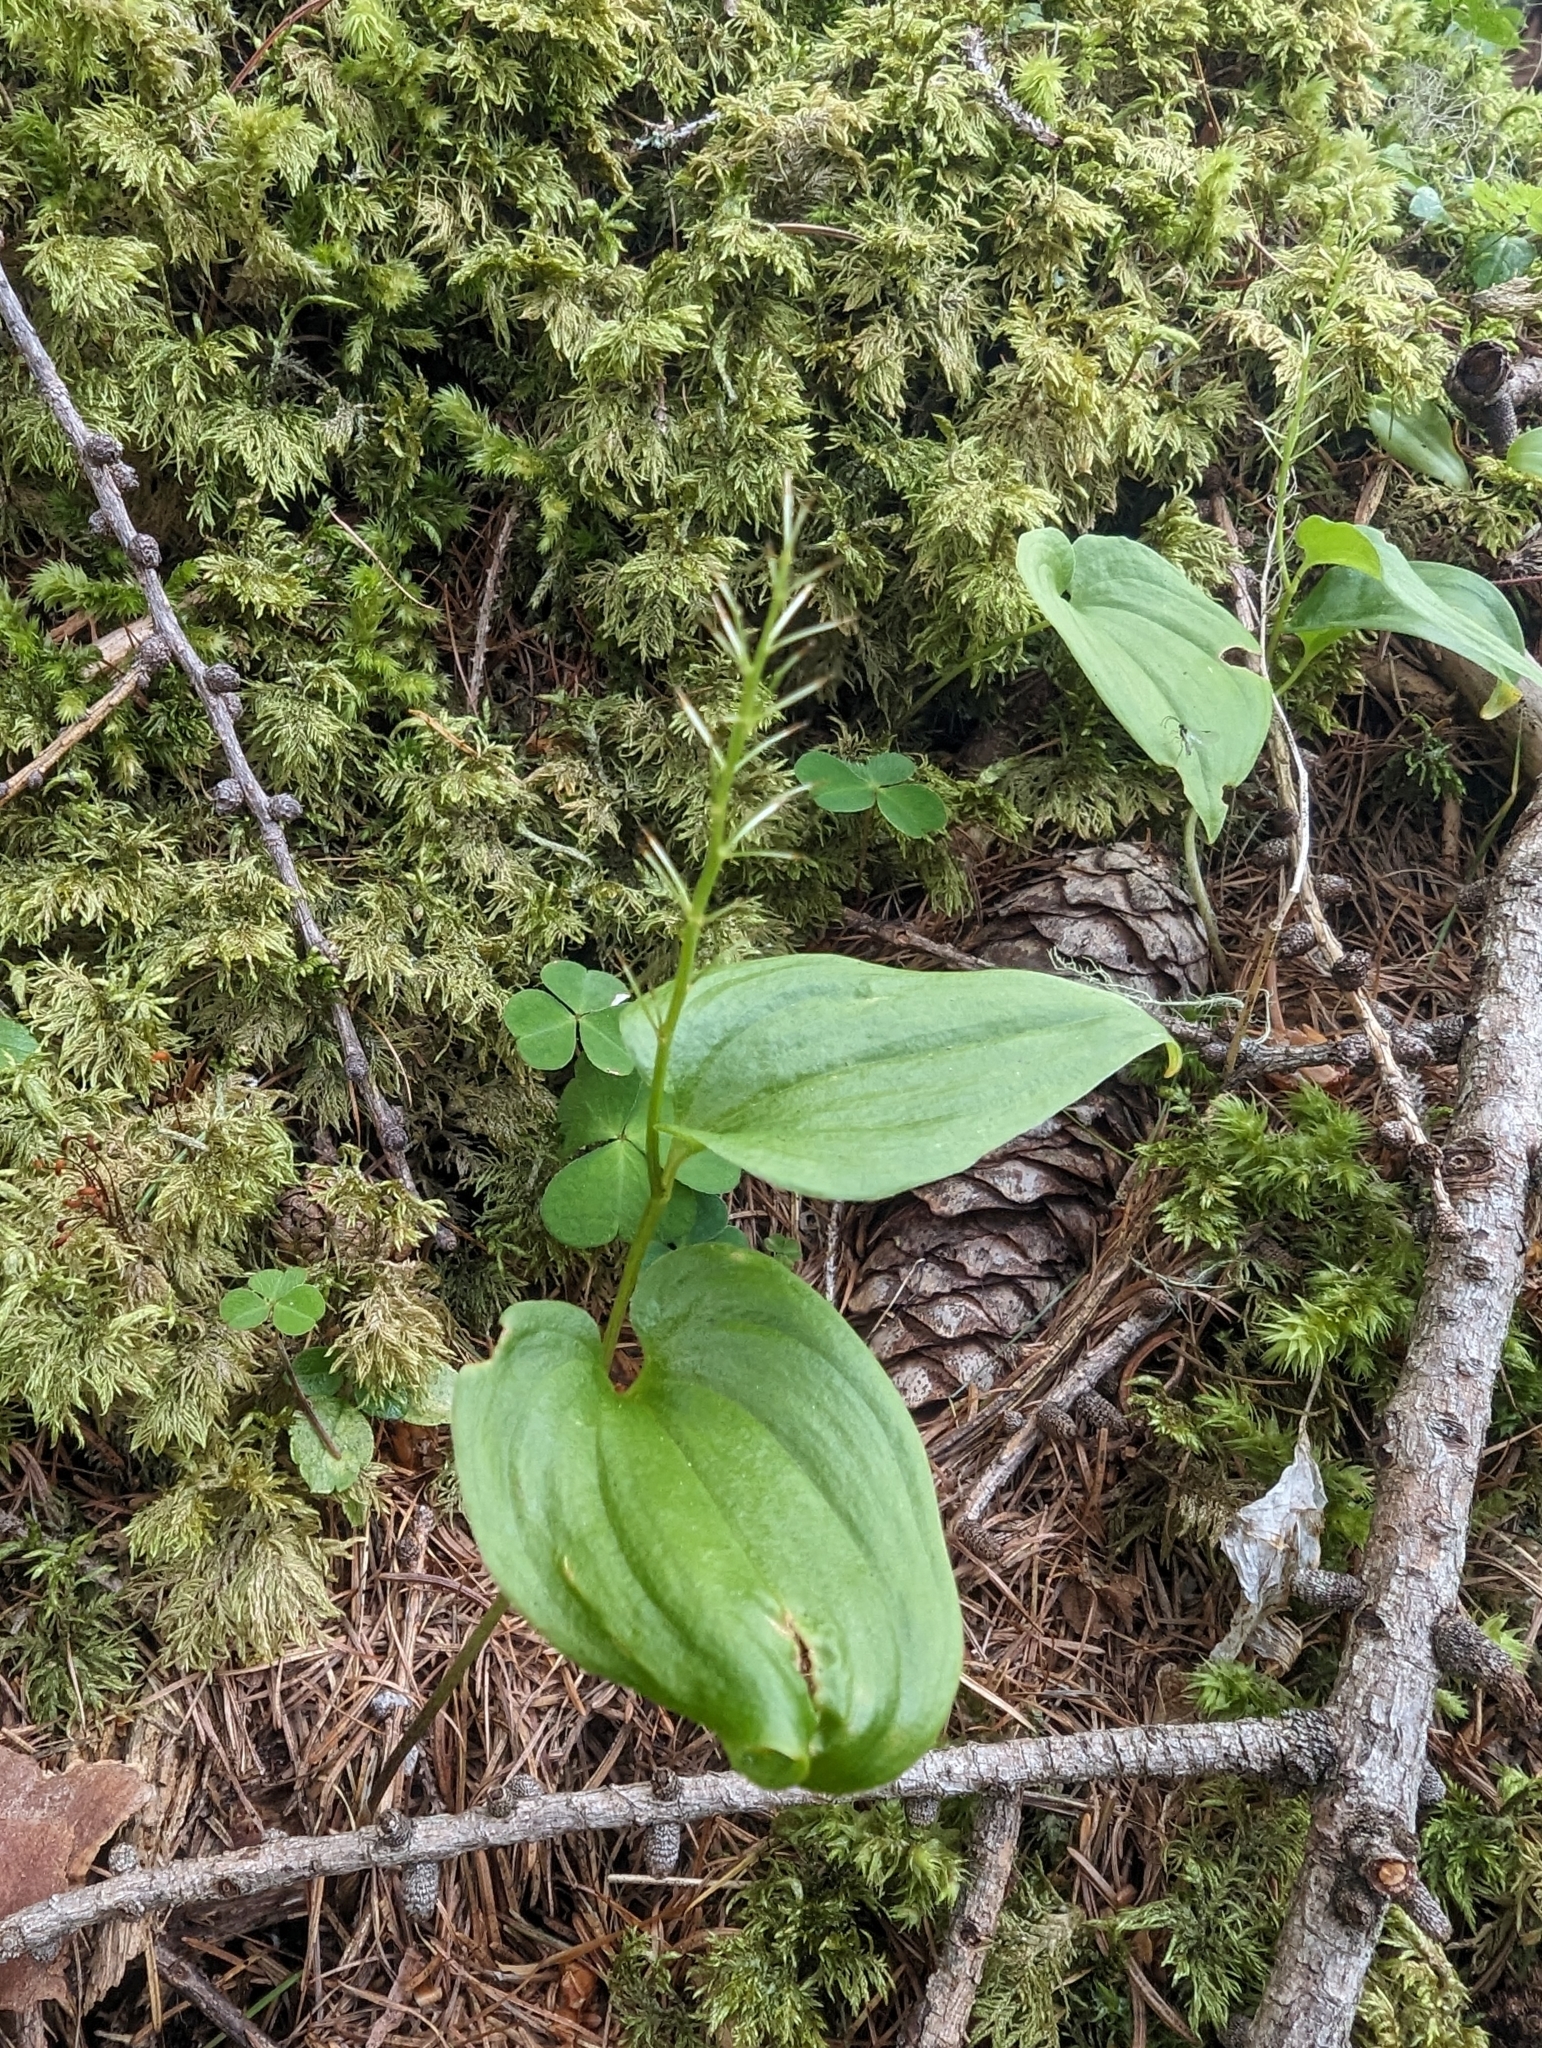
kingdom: Plantae
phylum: Tracheophyta
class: Liliopsida
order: Asparagales
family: Asparagaceae
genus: Maianthemum
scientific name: Maianthemum bifolium
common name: May lily
